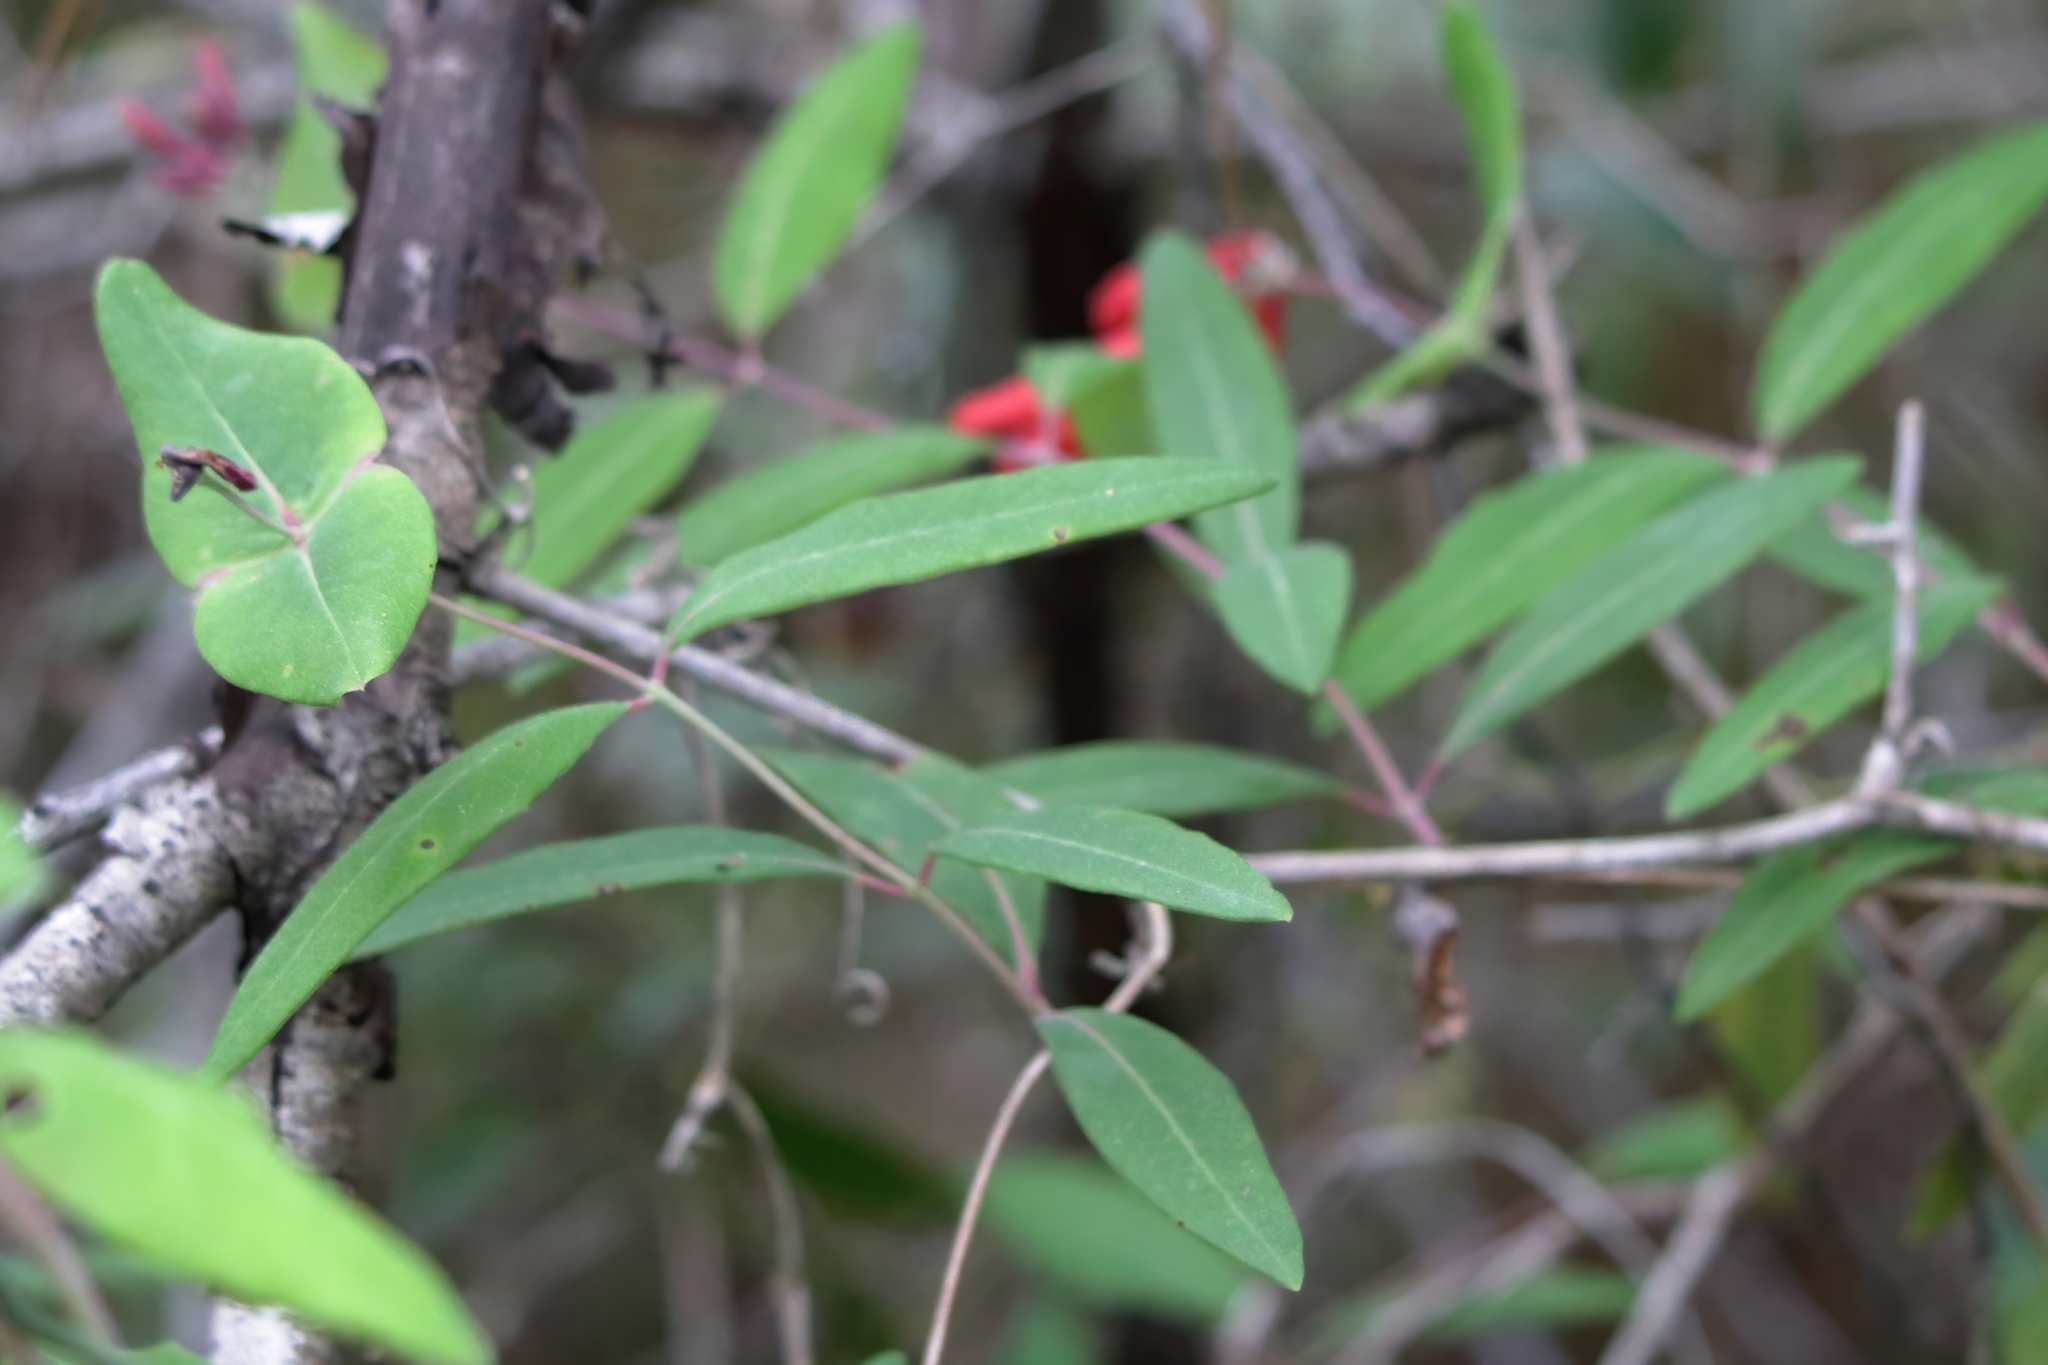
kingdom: Plantae
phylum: Tracheophyta
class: Magnoliopsida
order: Dipsacales
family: Caprifoliaceae
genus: Lonicera
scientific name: Lonicera sempervirens
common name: Coral honeysuckle
